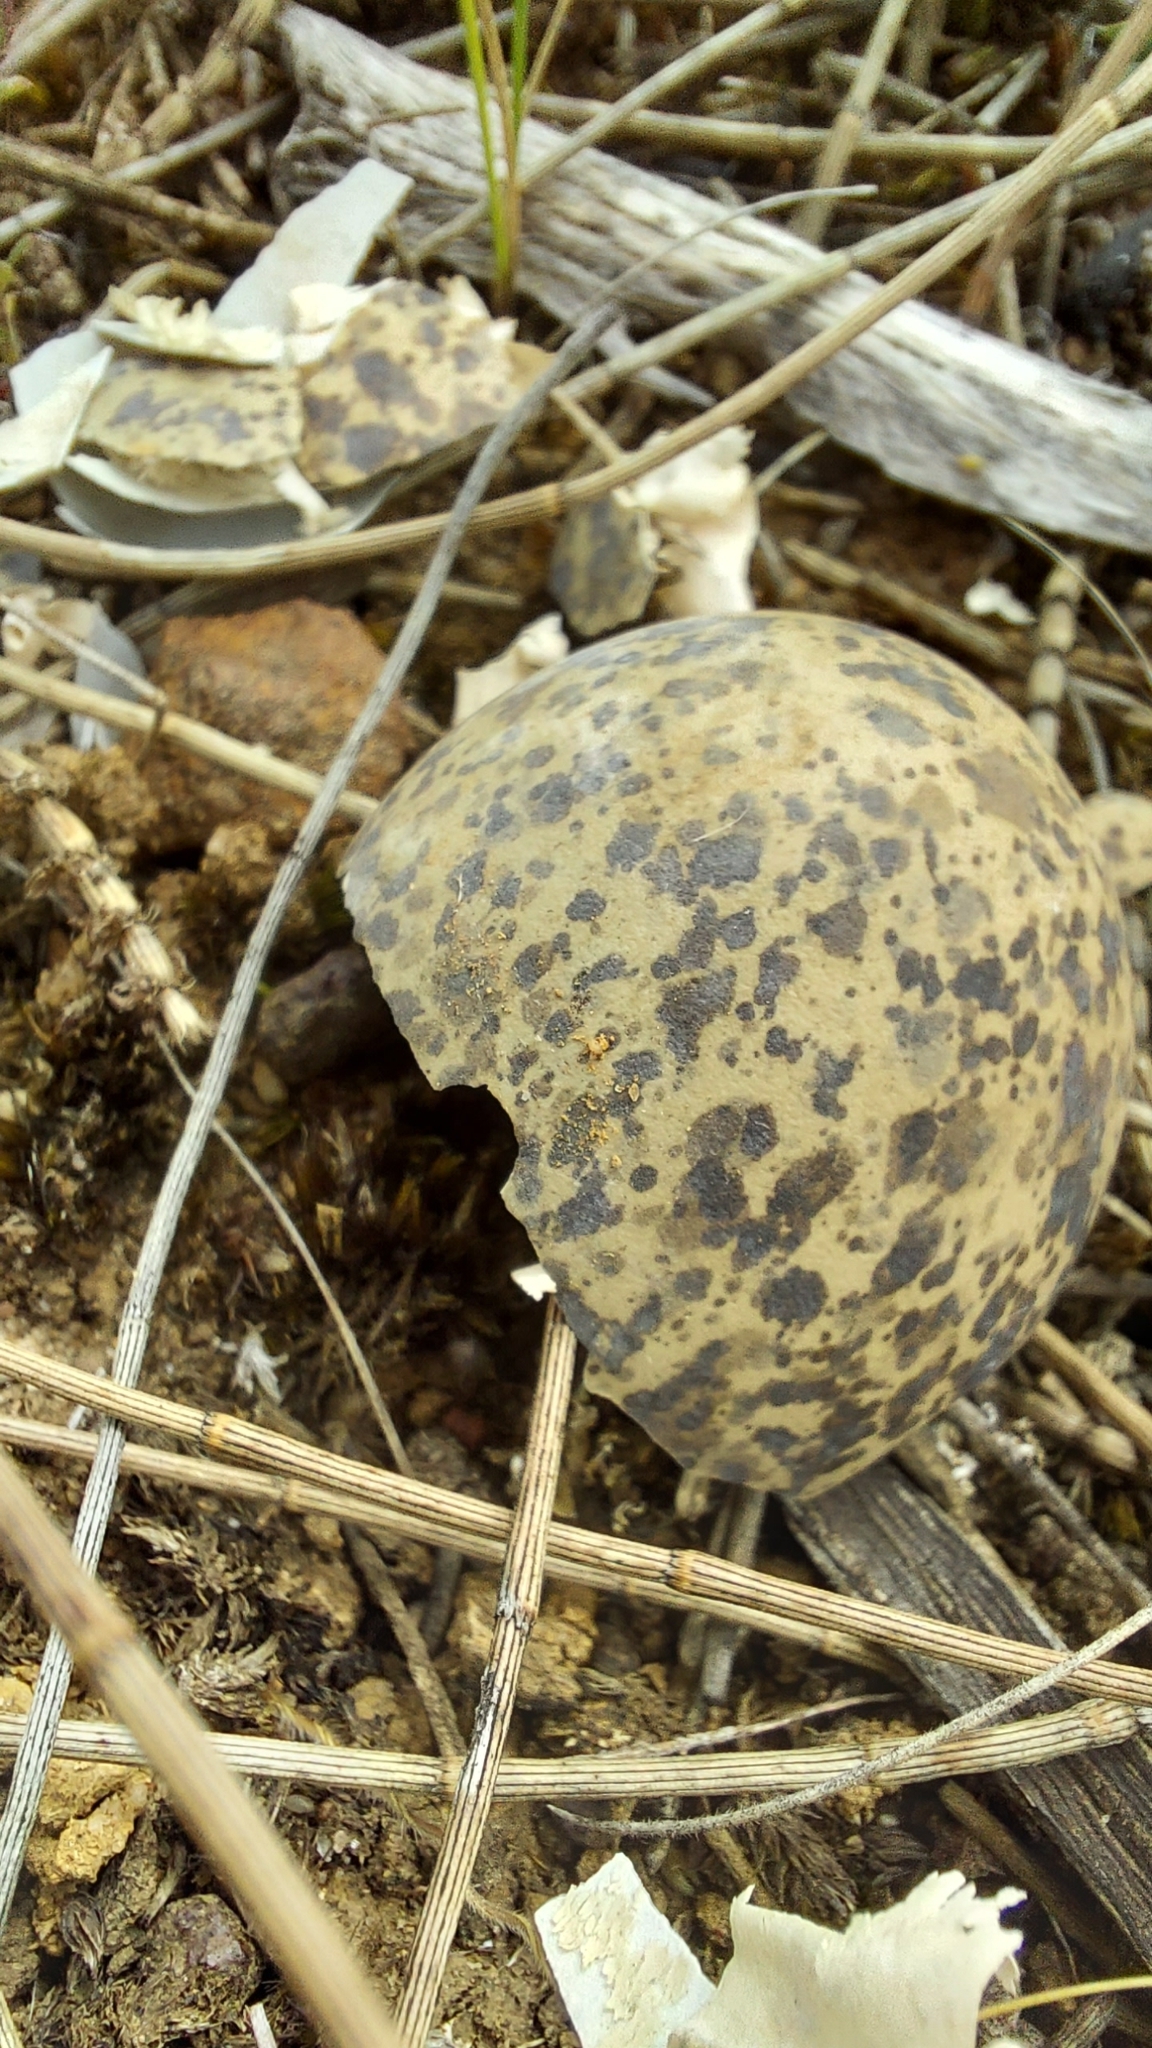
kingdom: Animalia
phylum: Chordata
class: Aves
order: Charadriiformes
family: Charadriidae
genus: Vanellus
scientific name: Vanellus miles
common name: Masked lapwing
